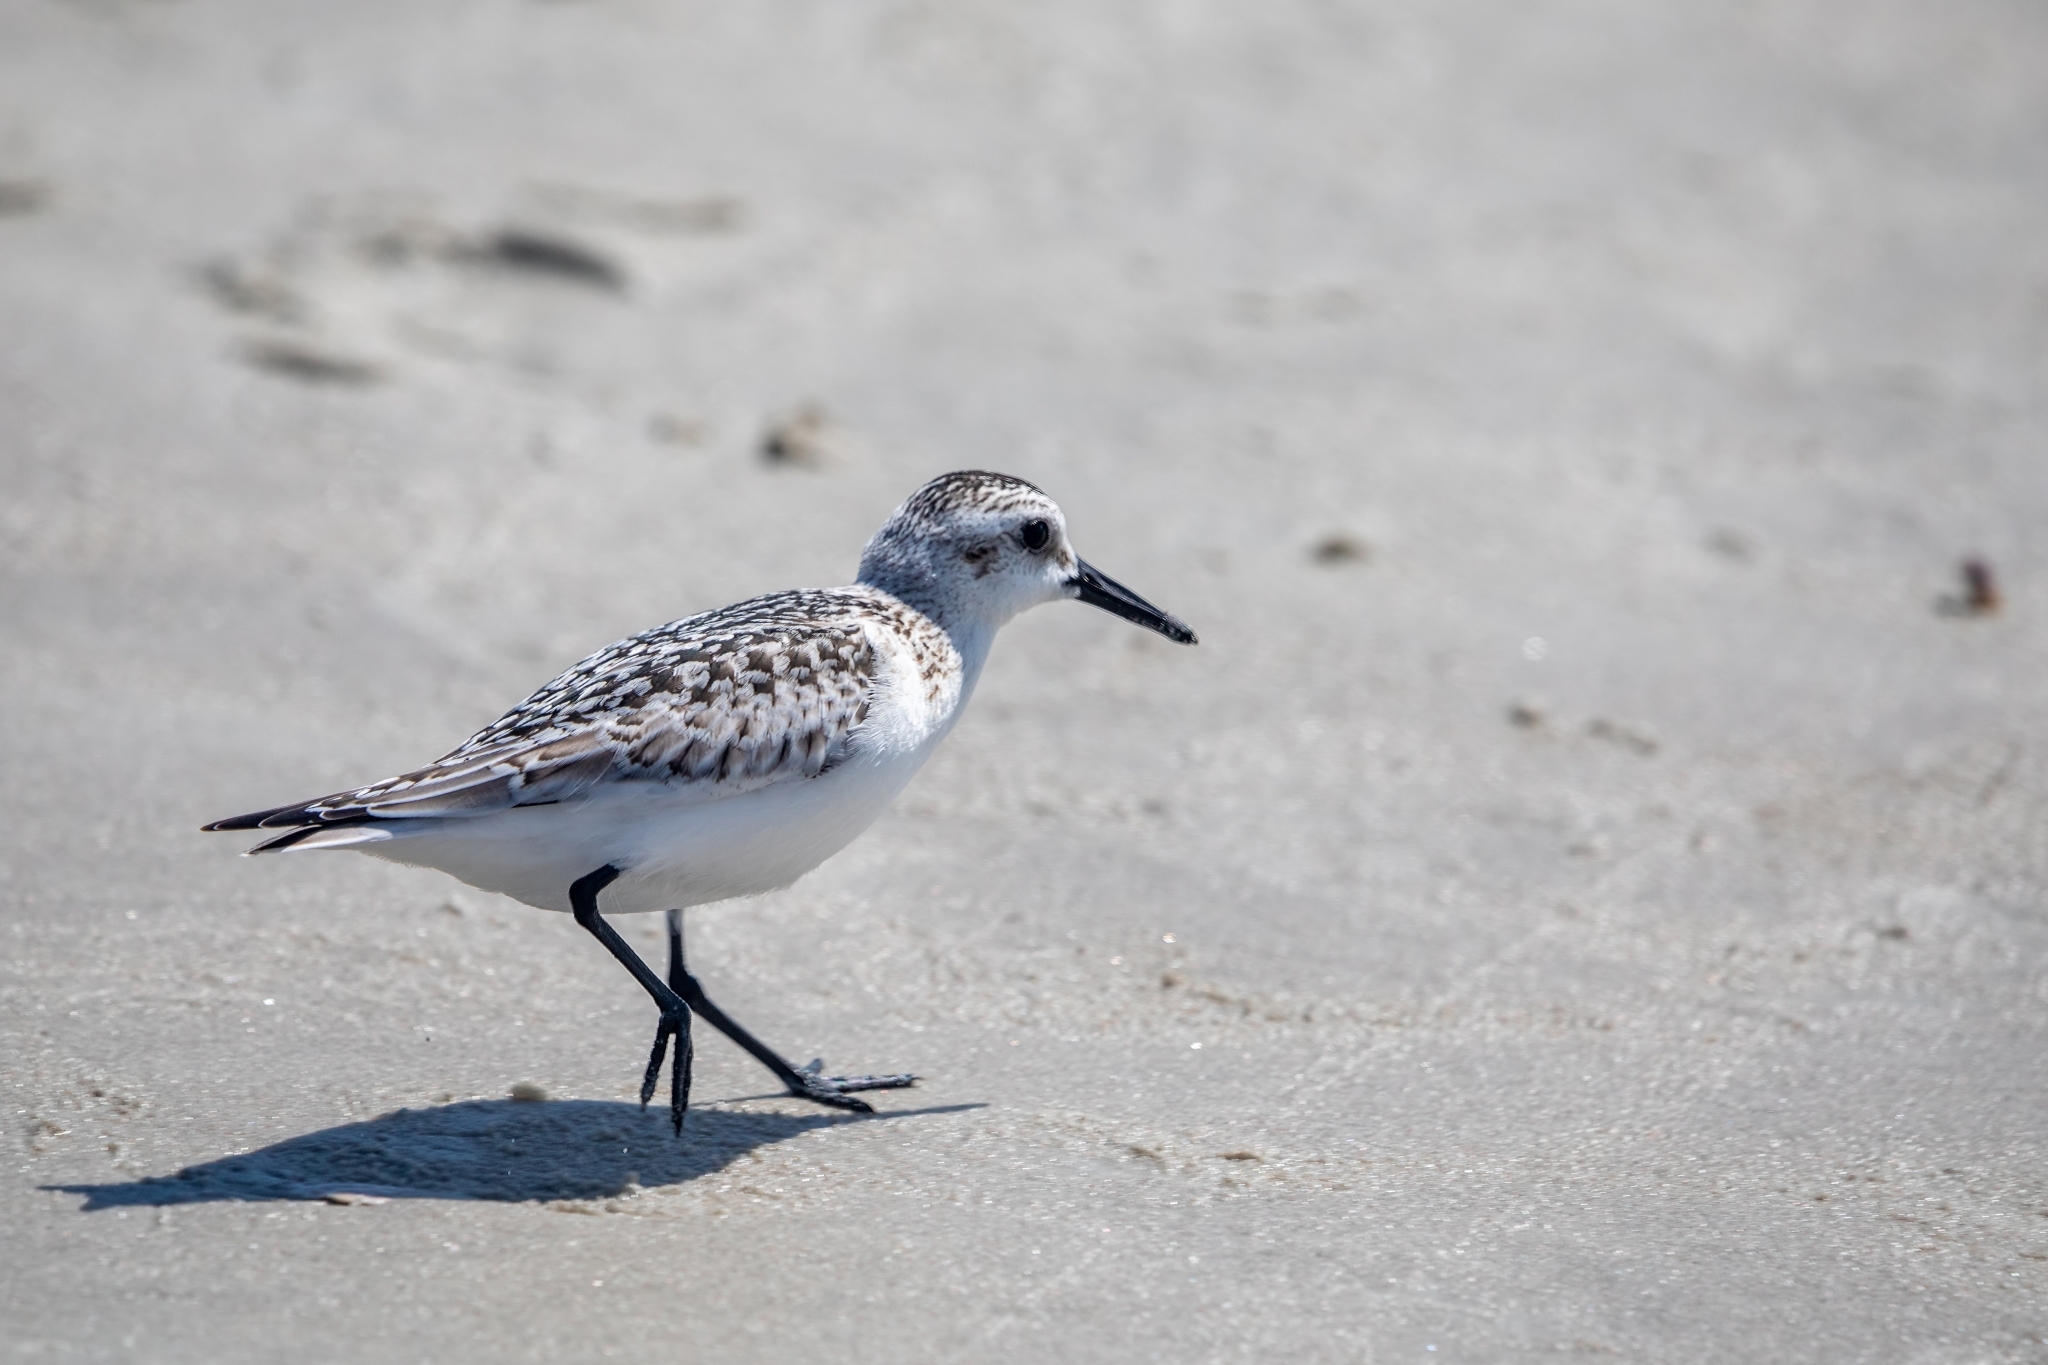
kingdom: Animalia
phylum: Chordata
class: Aves
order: Charadriiformes
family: Scolopacidae
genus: Calidris
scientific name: Calidris alba
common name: Sanderling
